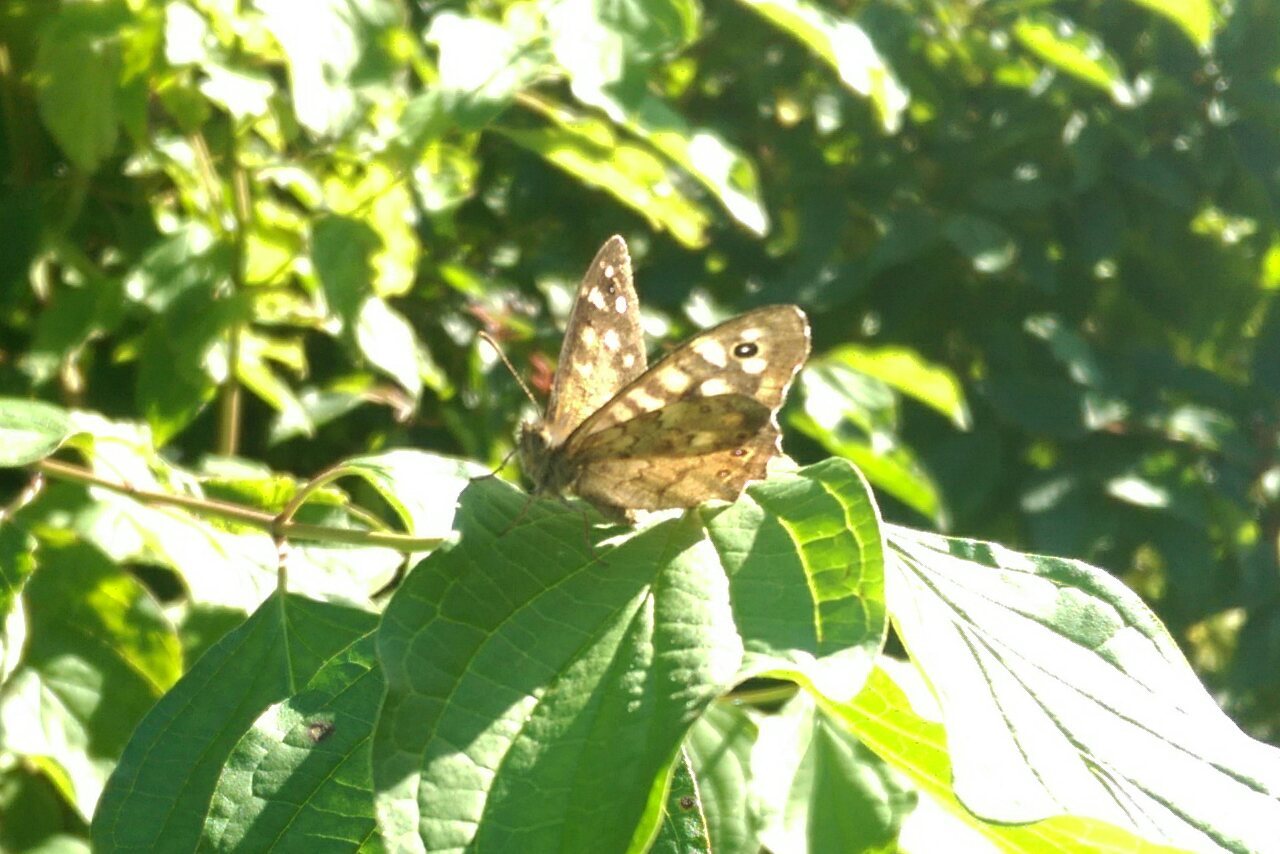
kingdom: Animalia
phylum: Arthropoda
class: Insecta
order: Lepidoptera
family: Nymphalidae
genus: Pararge
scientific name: Pararge aegeria
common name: Speckled wood
